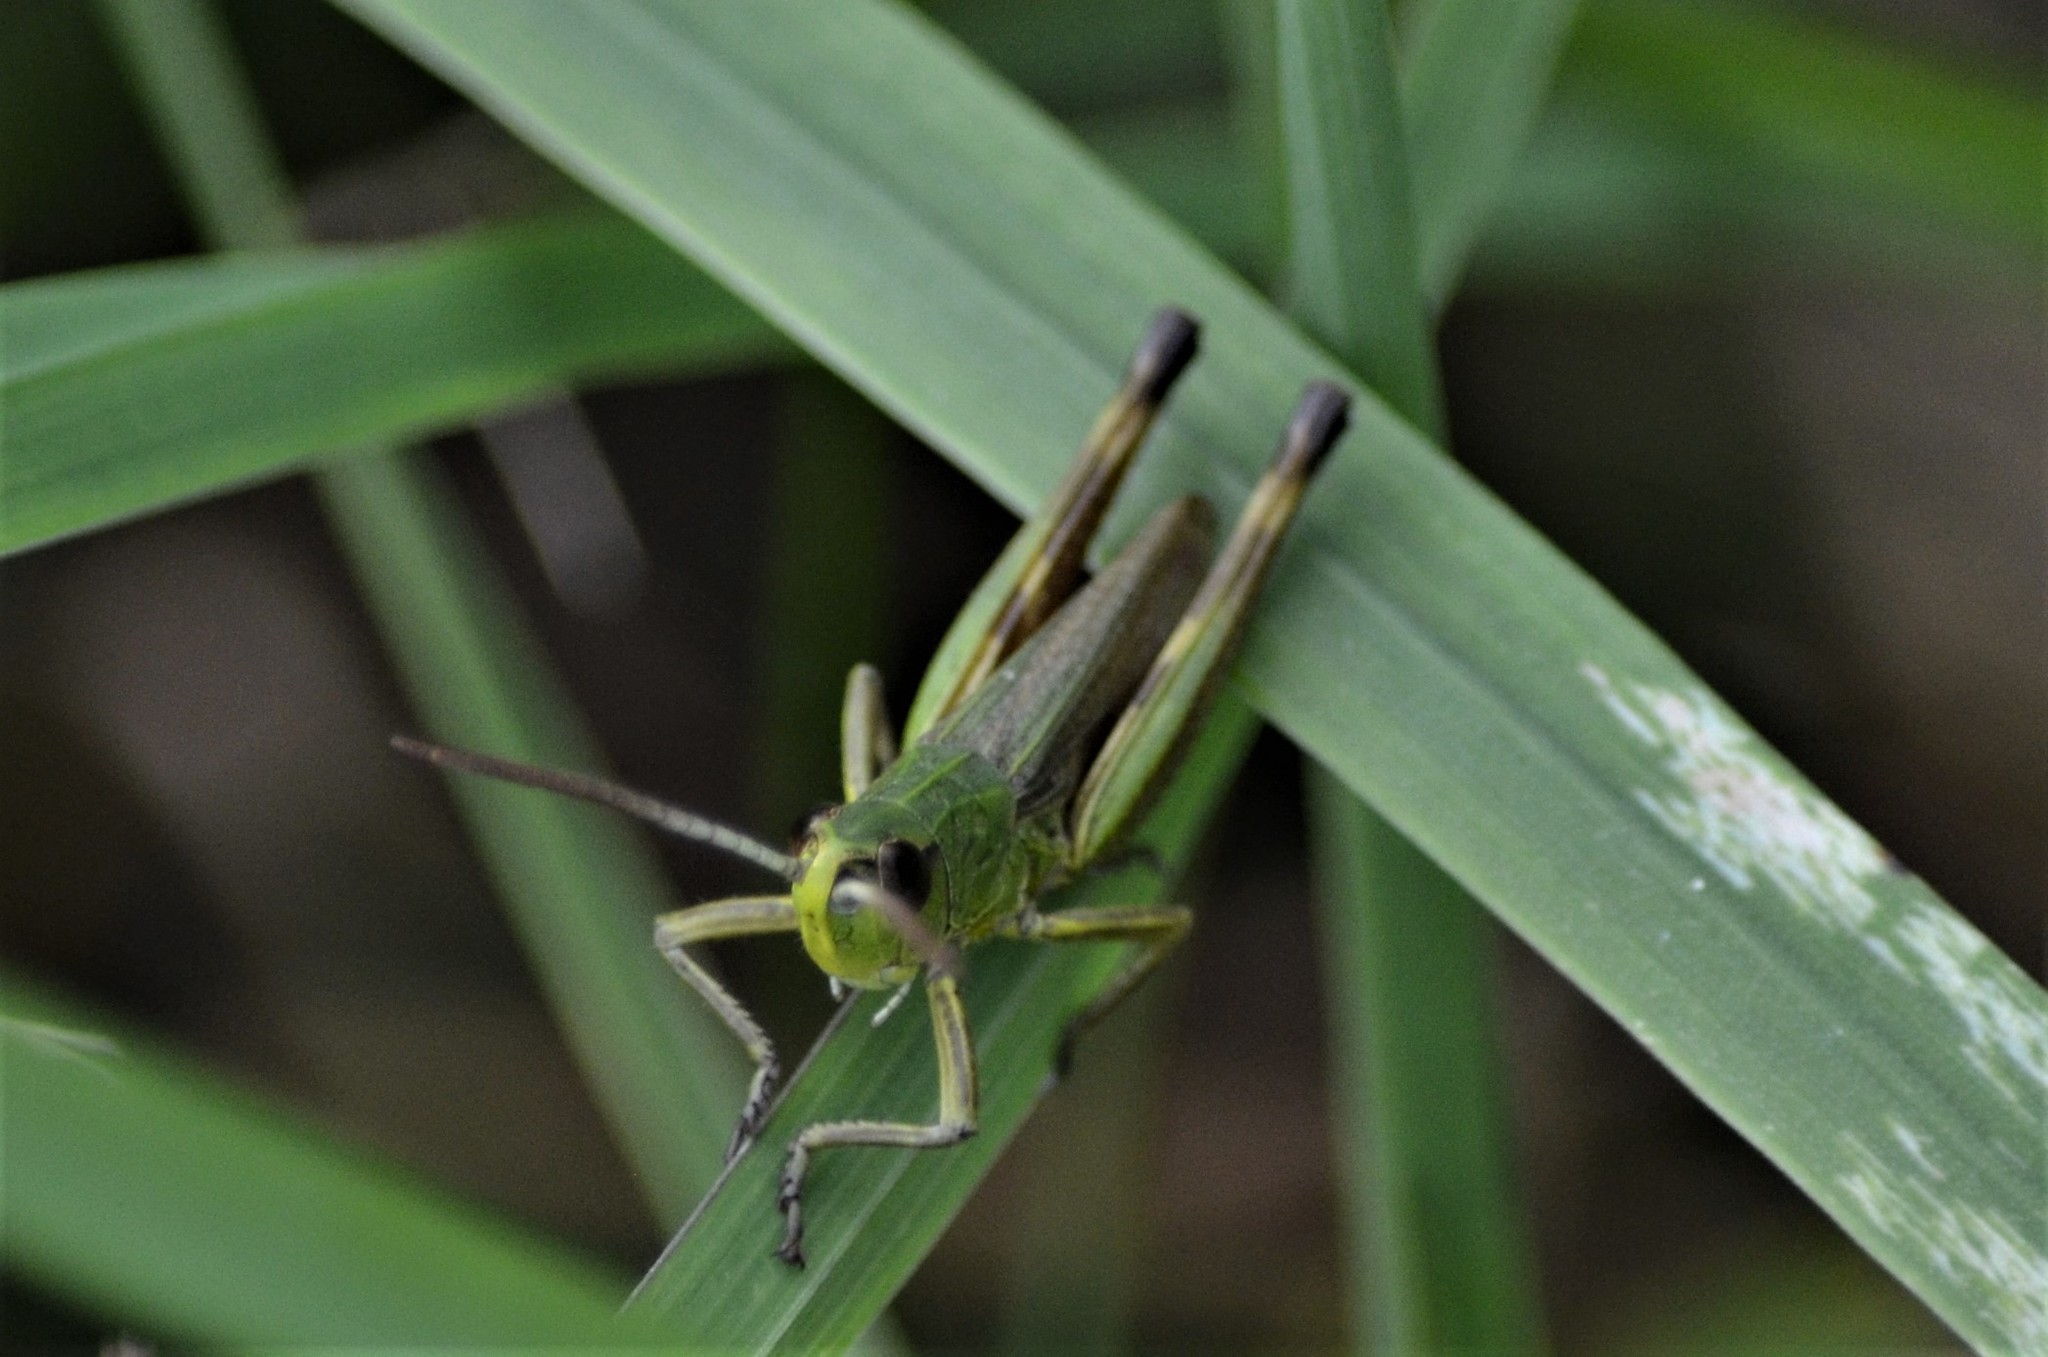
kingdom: Animalia
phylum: Arthropoda
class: Insecta
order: Orthoptera
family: Acrididae
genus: Pseudochorthippus
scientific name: Pseudochorthippus parallelus
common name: Meadow grasshopper
